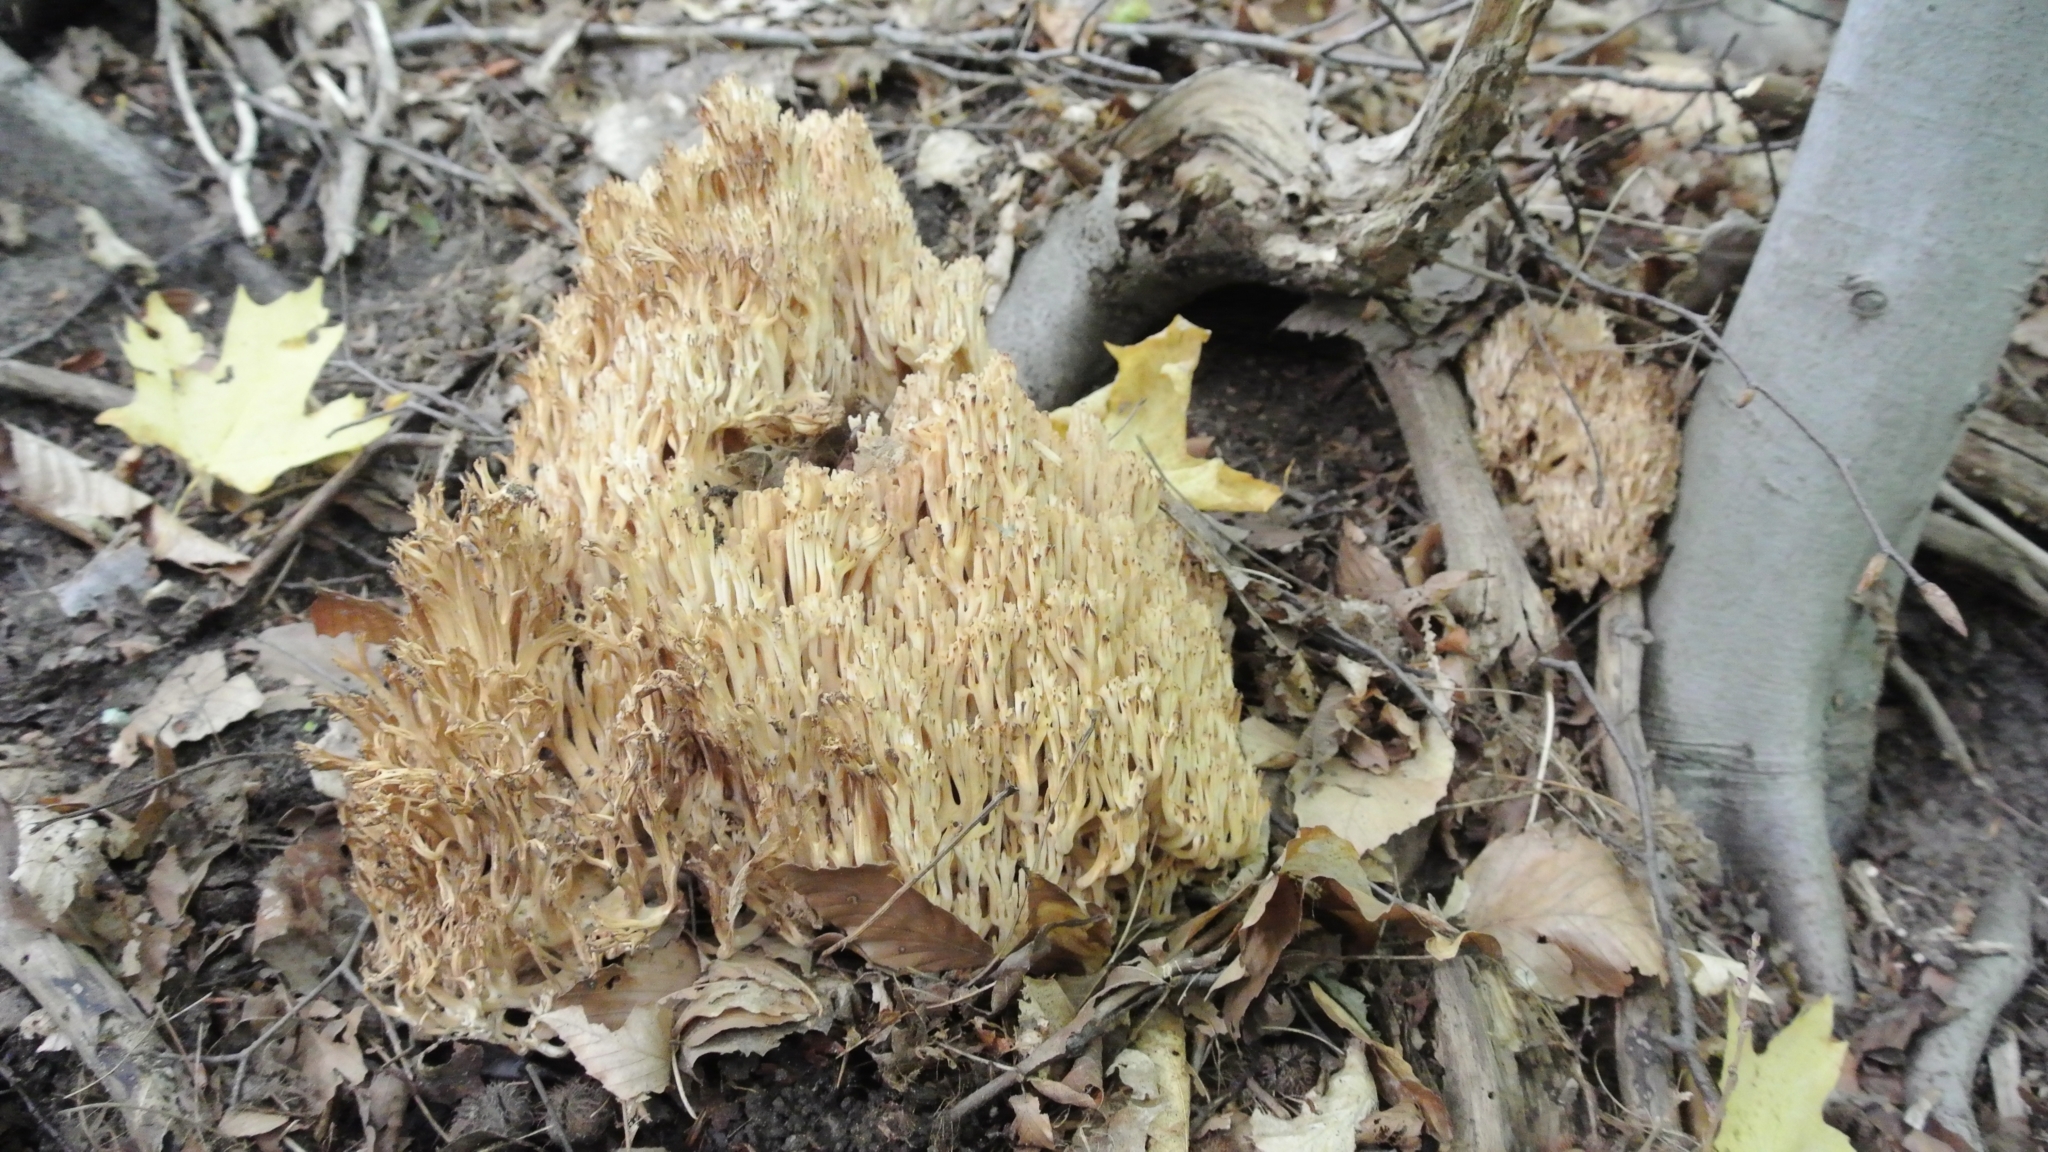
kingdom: Fungi
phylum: Basidiomycota
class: Agaricomycetes
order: Russulales
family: Auriscalpiaceae
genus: Artomyces
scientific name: Artomyces pyxidatus
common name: Crown-tipped coral fungus
